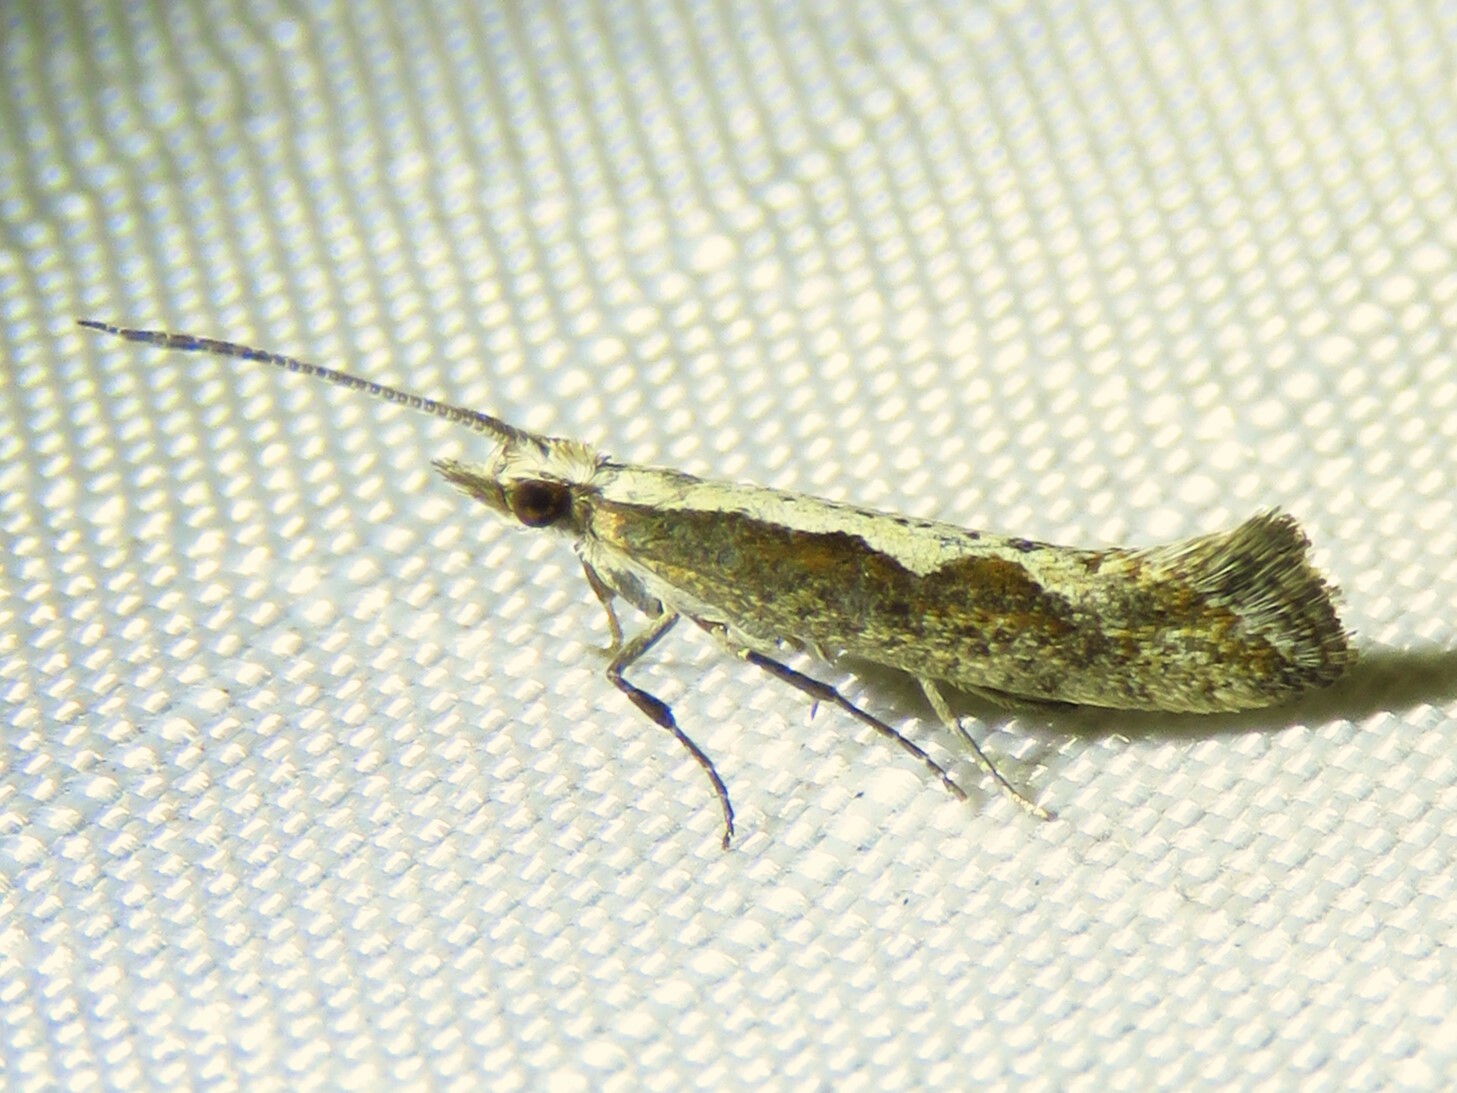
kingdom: Animalia
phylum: Arthropoda
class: Insecta
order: Lepidoptera
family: Plutellidae
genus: Plutella
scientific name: Plutella xylostella
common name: Diamond-back moth
